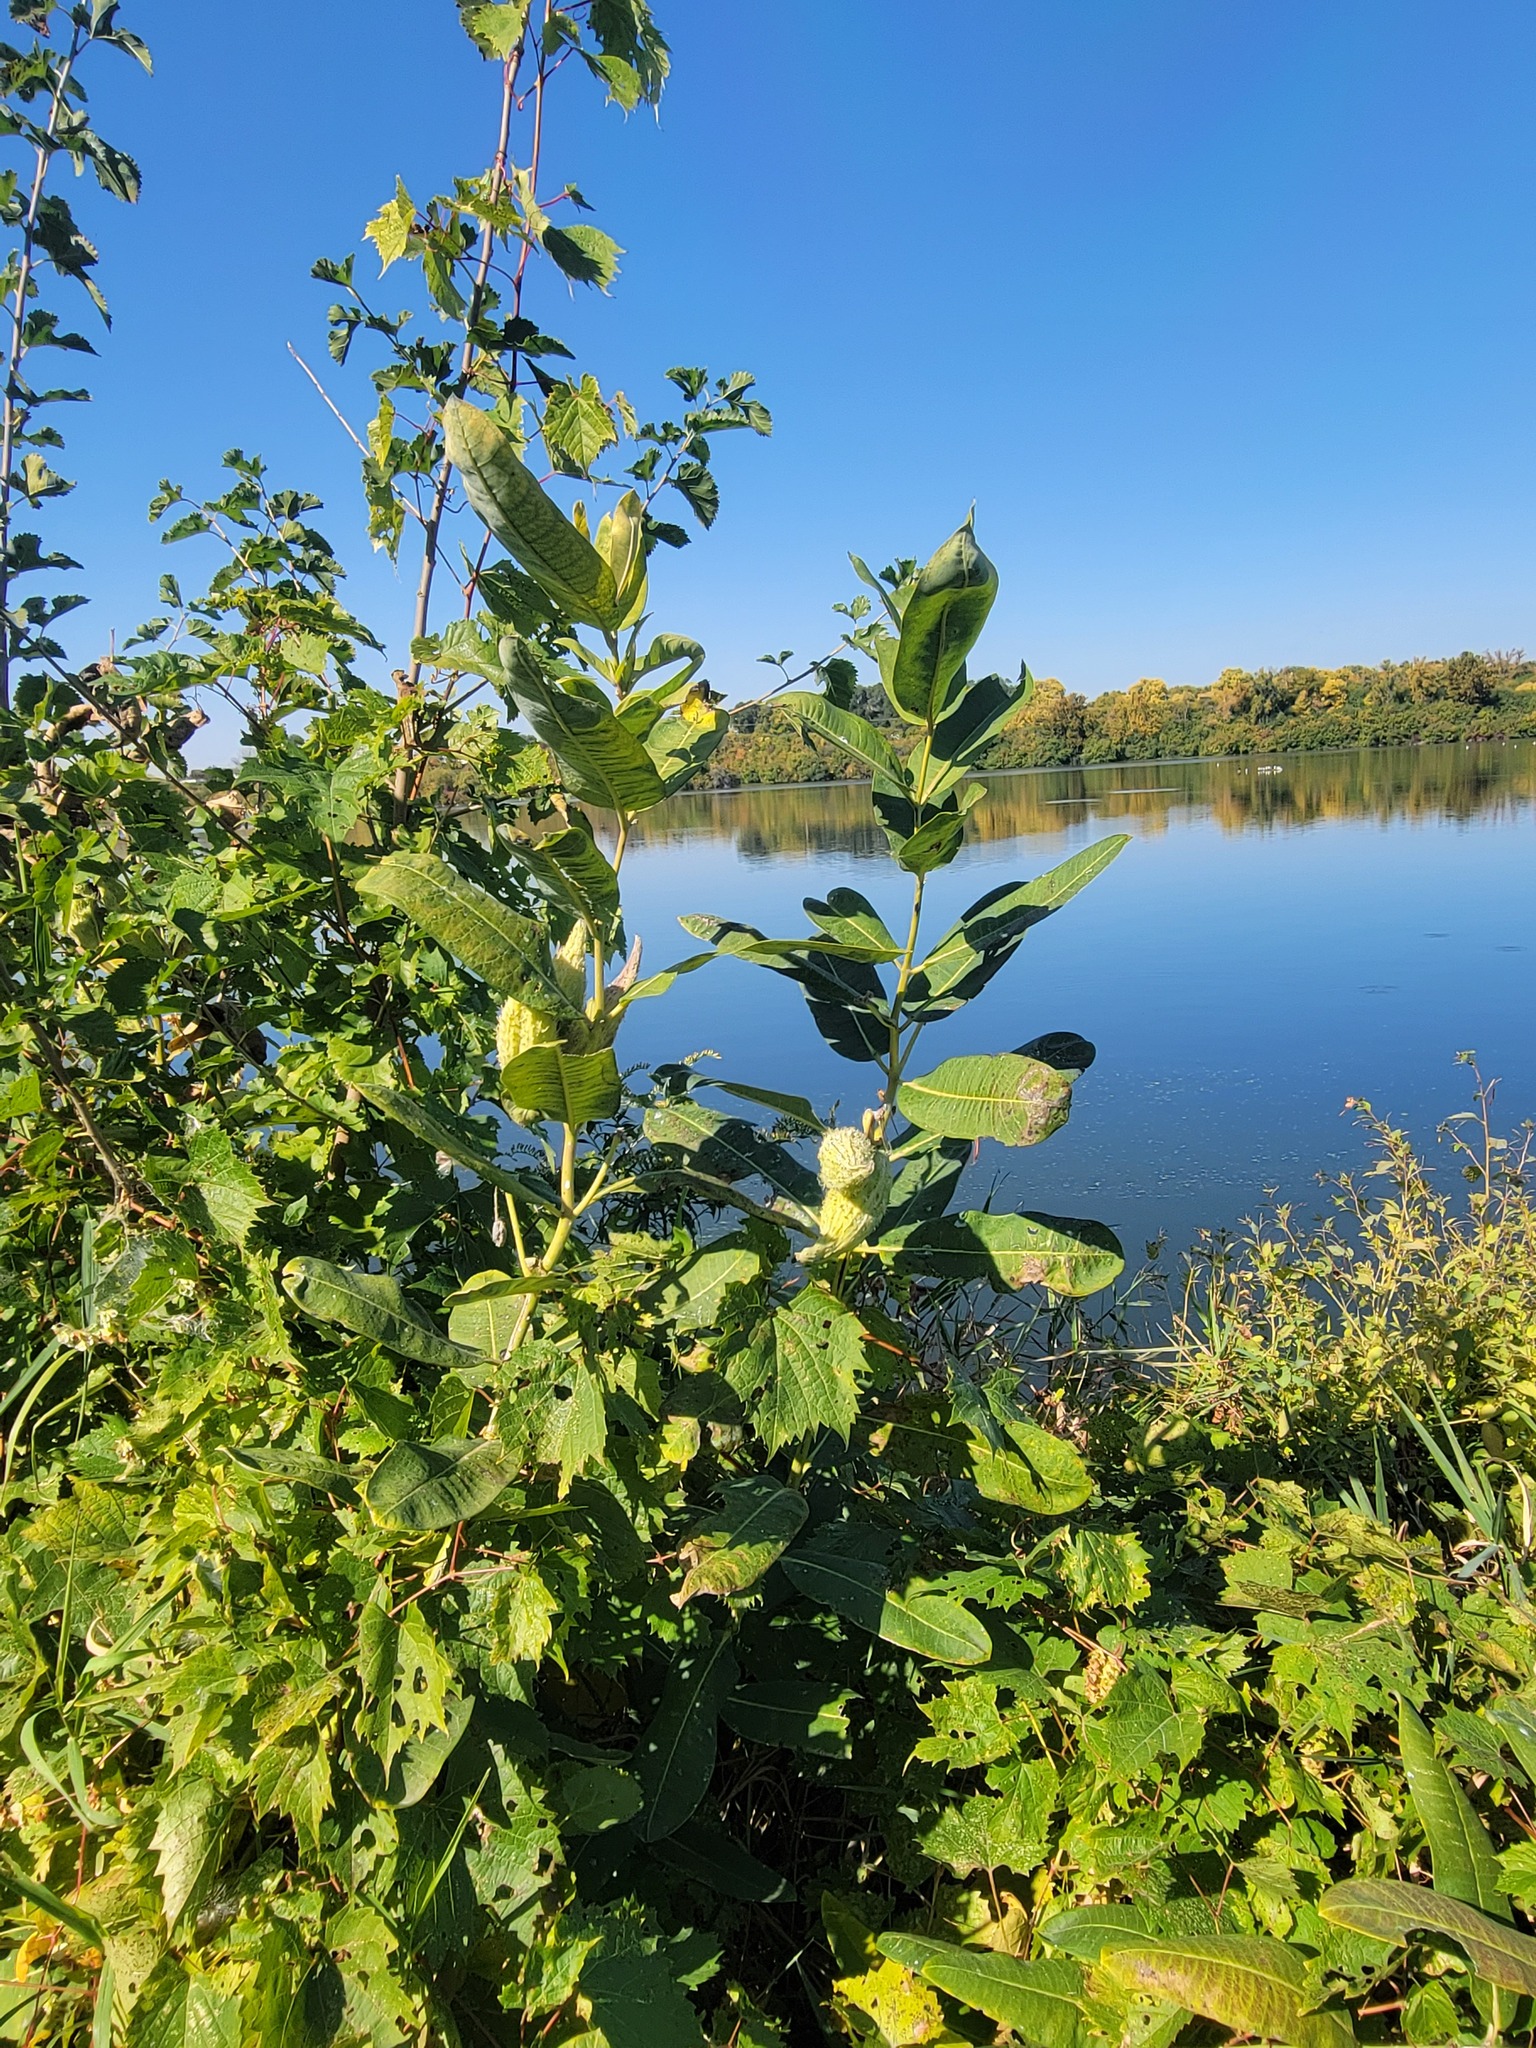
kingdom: Plantae
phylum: Tracheophyta
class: Magnoliopsida
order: Gentianales
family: Apocynaceae
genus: Asclepias
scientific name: Asclepias syriaca
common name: Common milkweed
